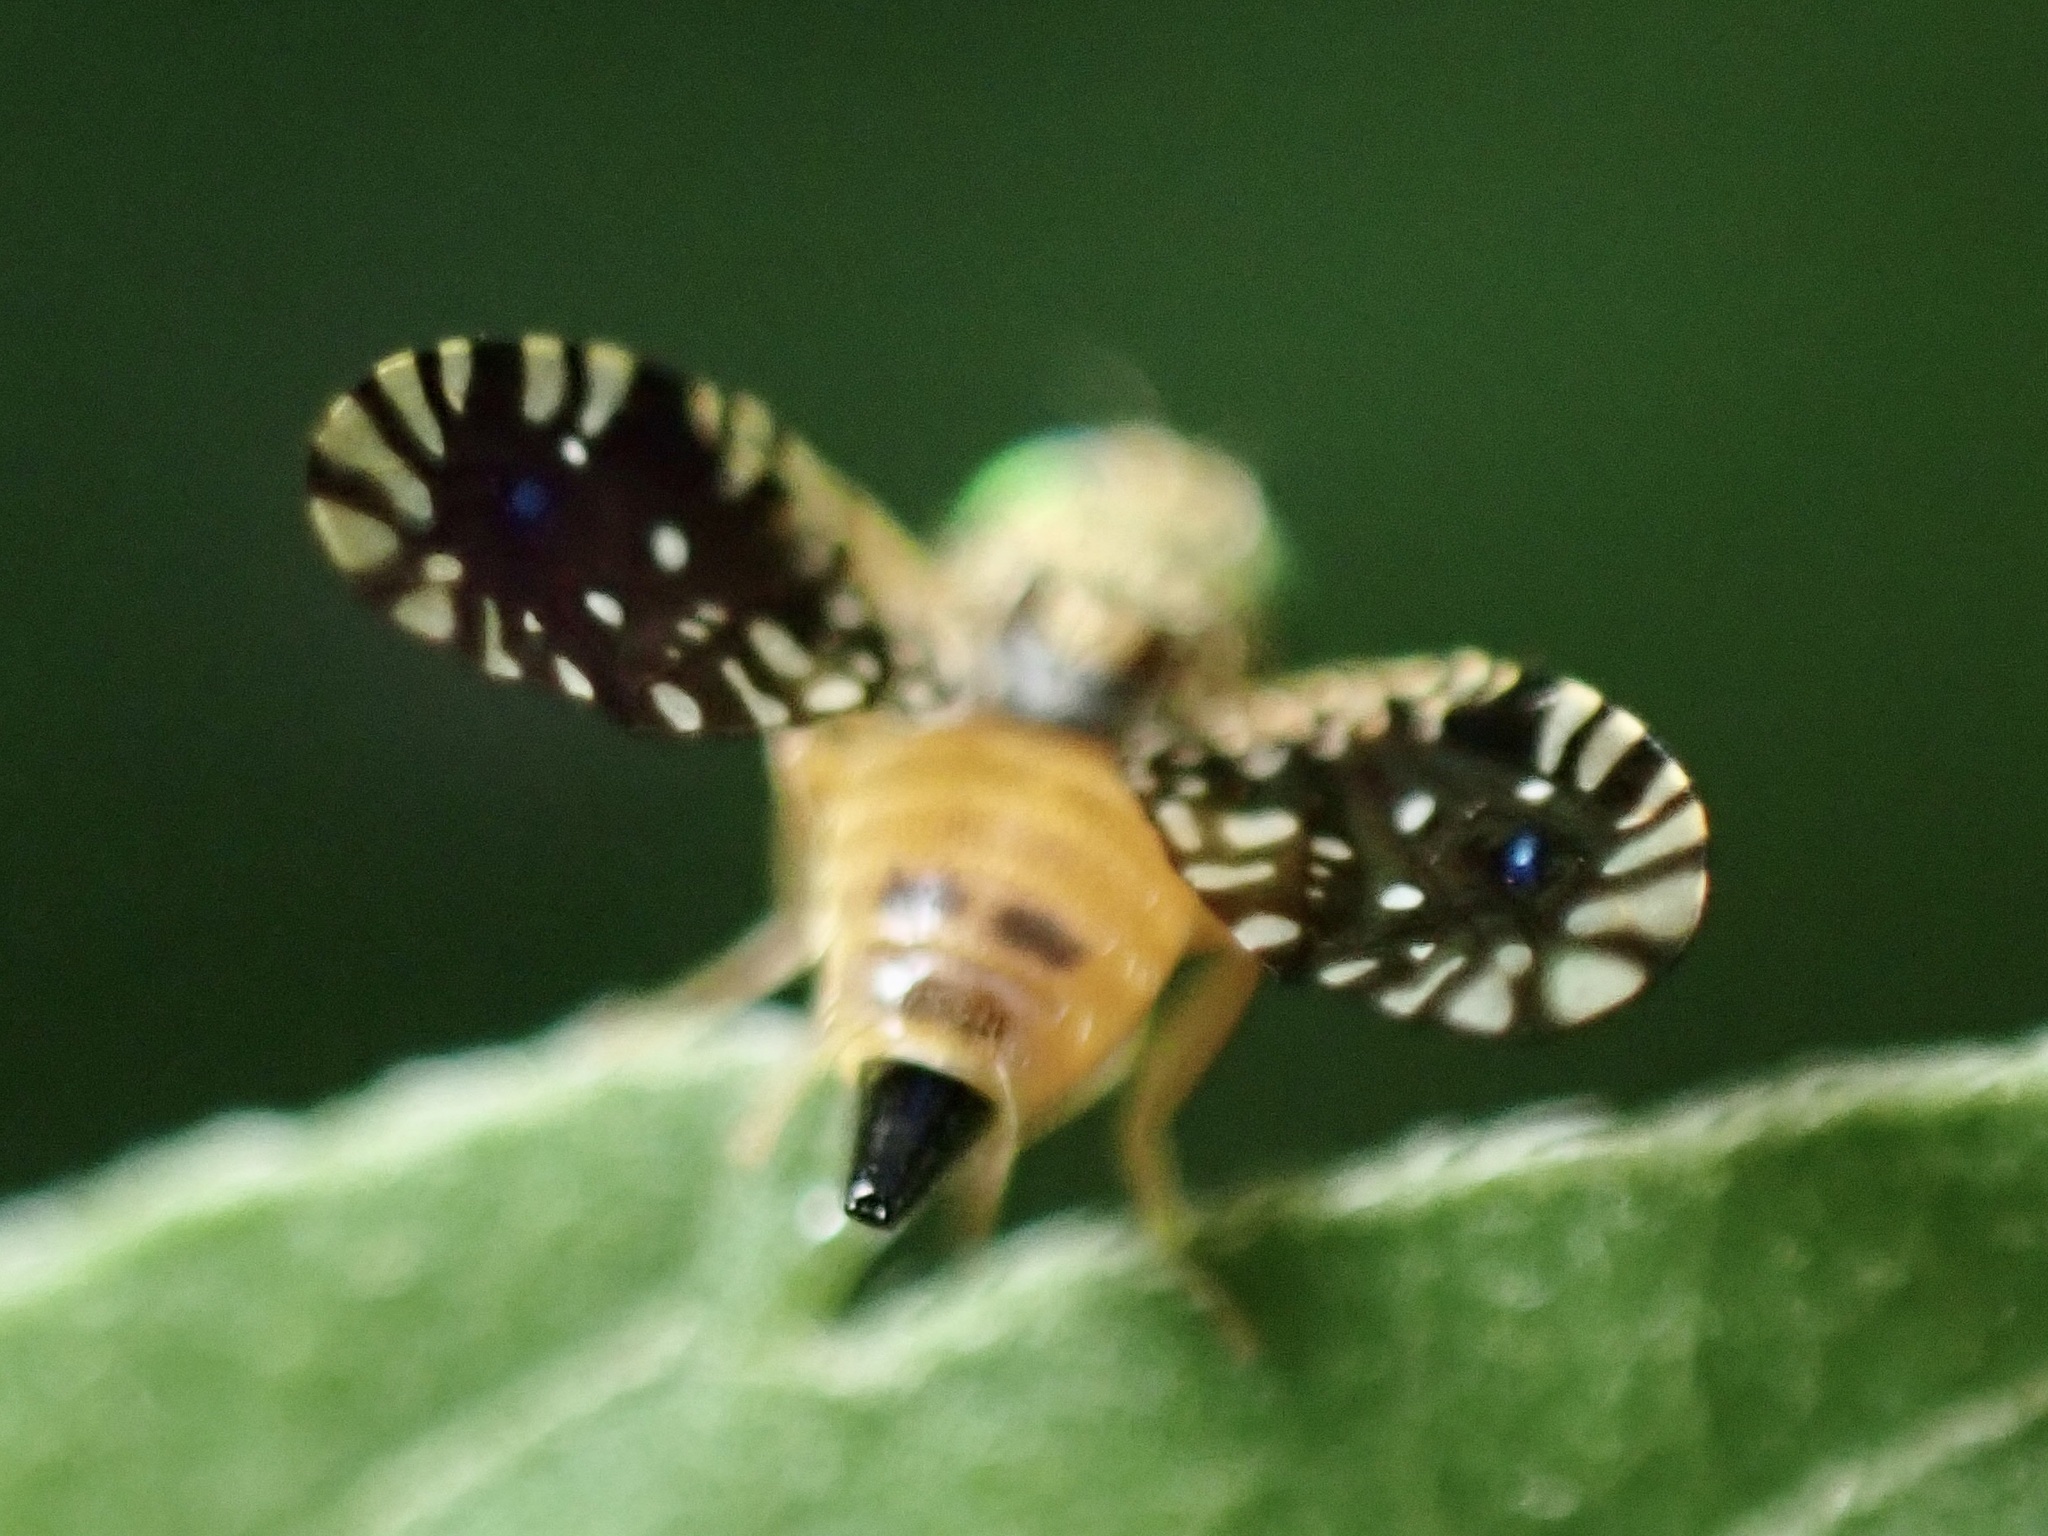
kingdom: Animalia
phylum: Arthropoda
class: Insecta
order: Diptera
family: Tephritidae
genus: Euaresta
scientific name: Euaresta bella
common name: Common ragweed fruit fly
